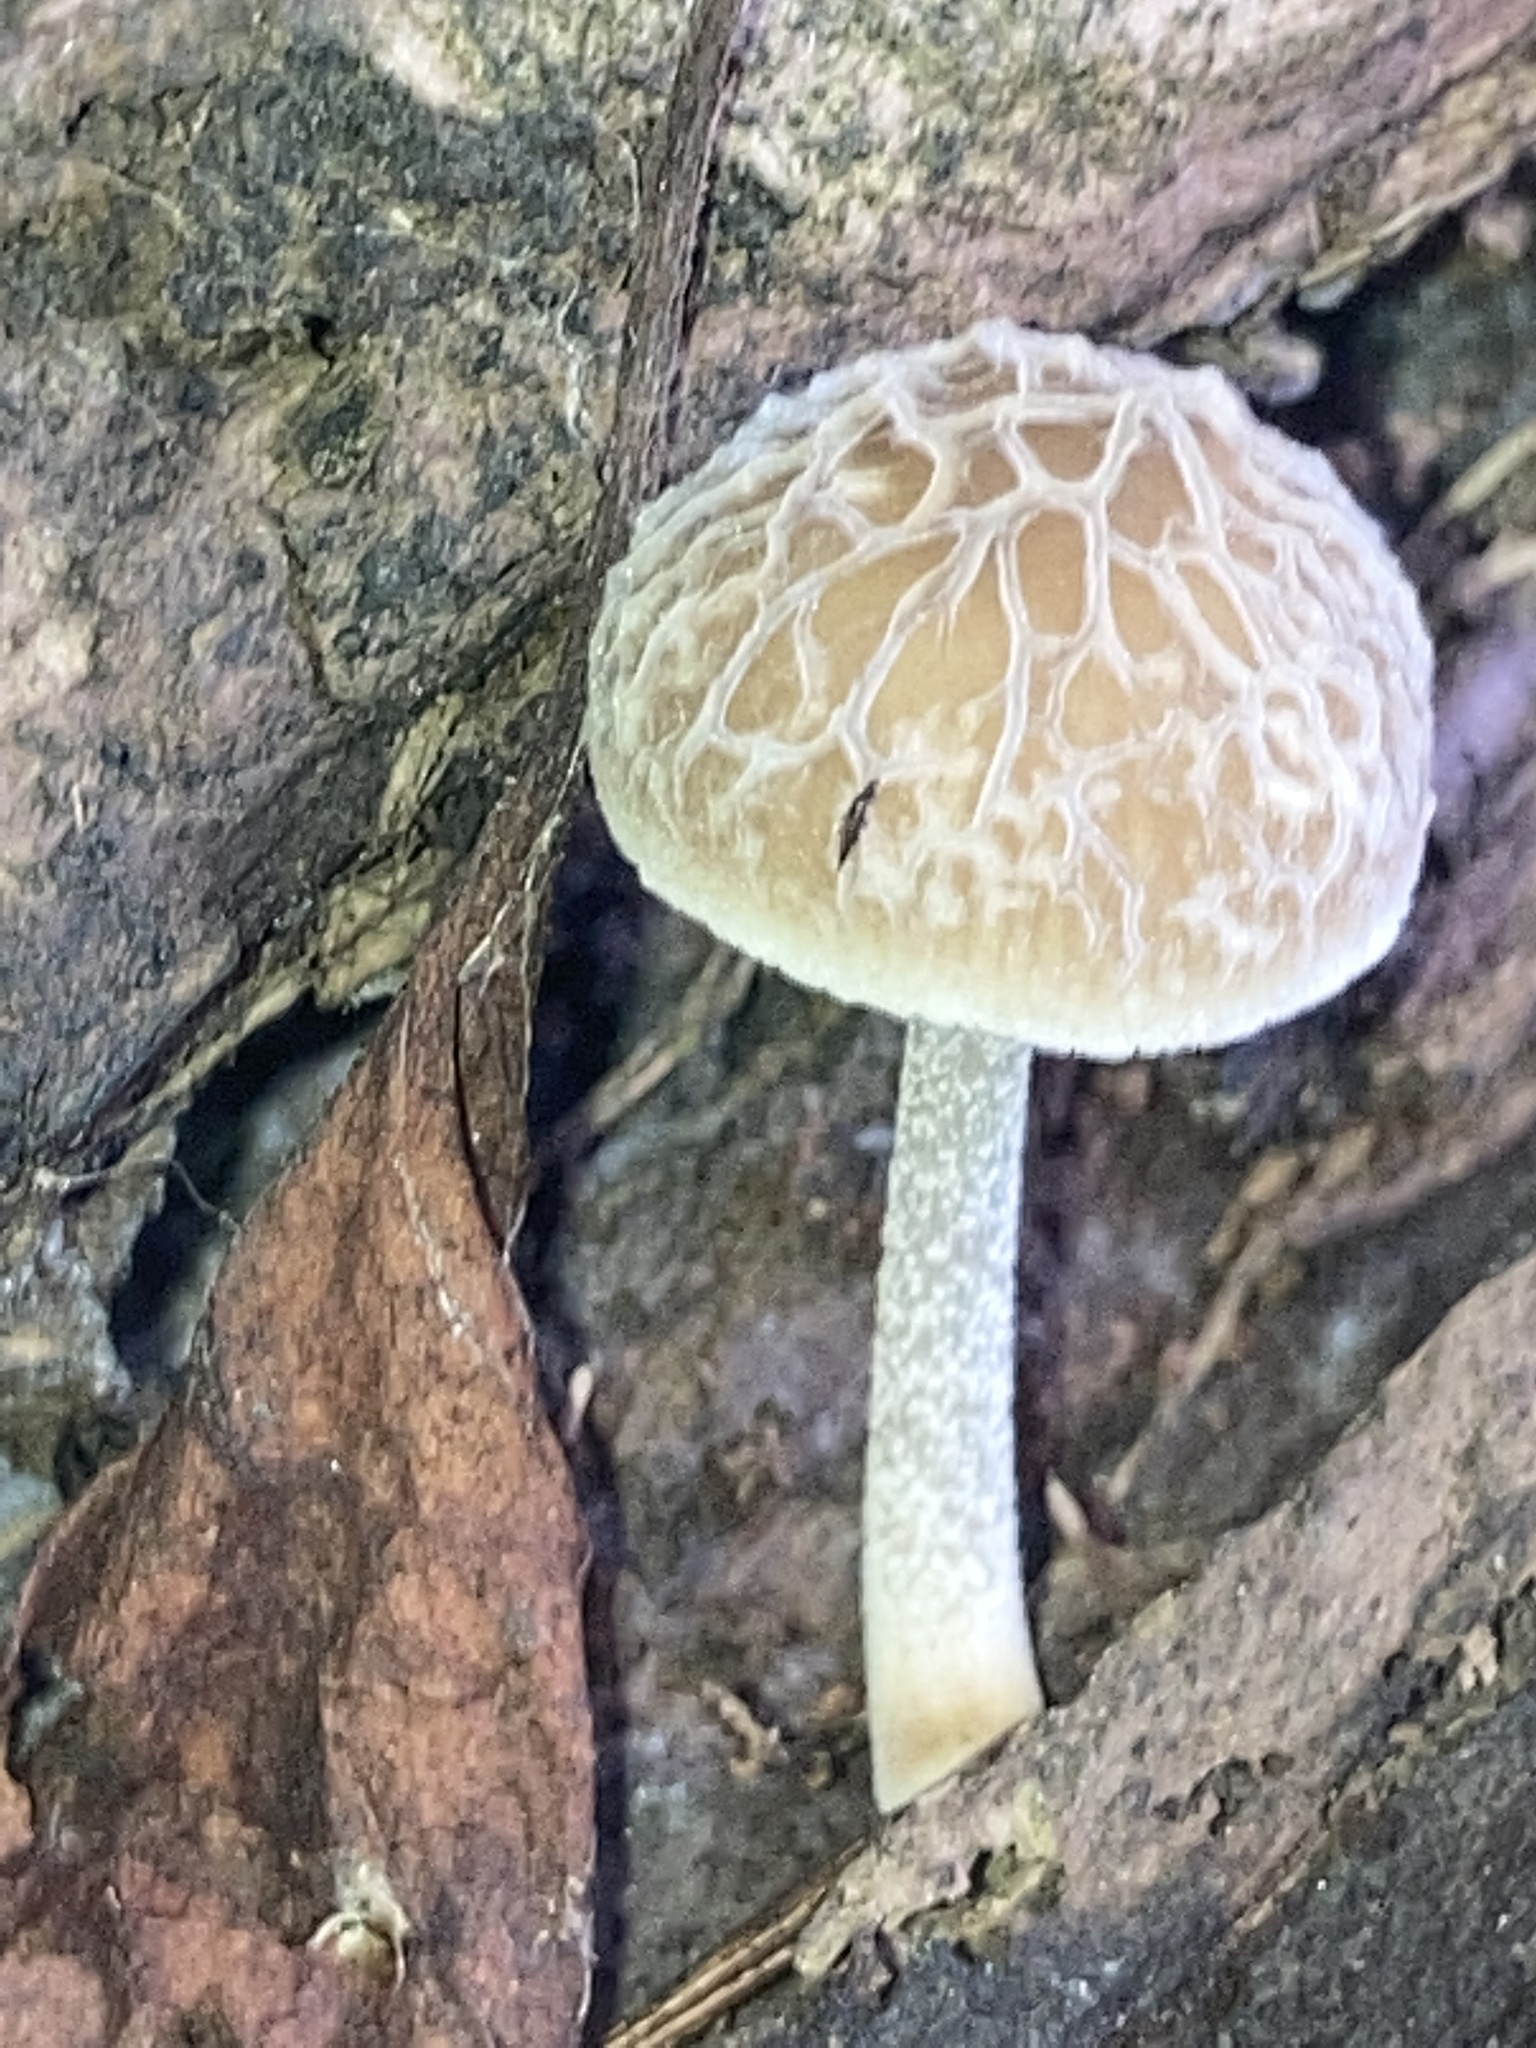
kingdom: Fungi
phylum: Basidiomycota
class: Agaricomycetes
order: Agaricales
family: Pluteaceae
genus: Pluteus
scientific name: Pluteus thomsonii
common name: Veined shield
